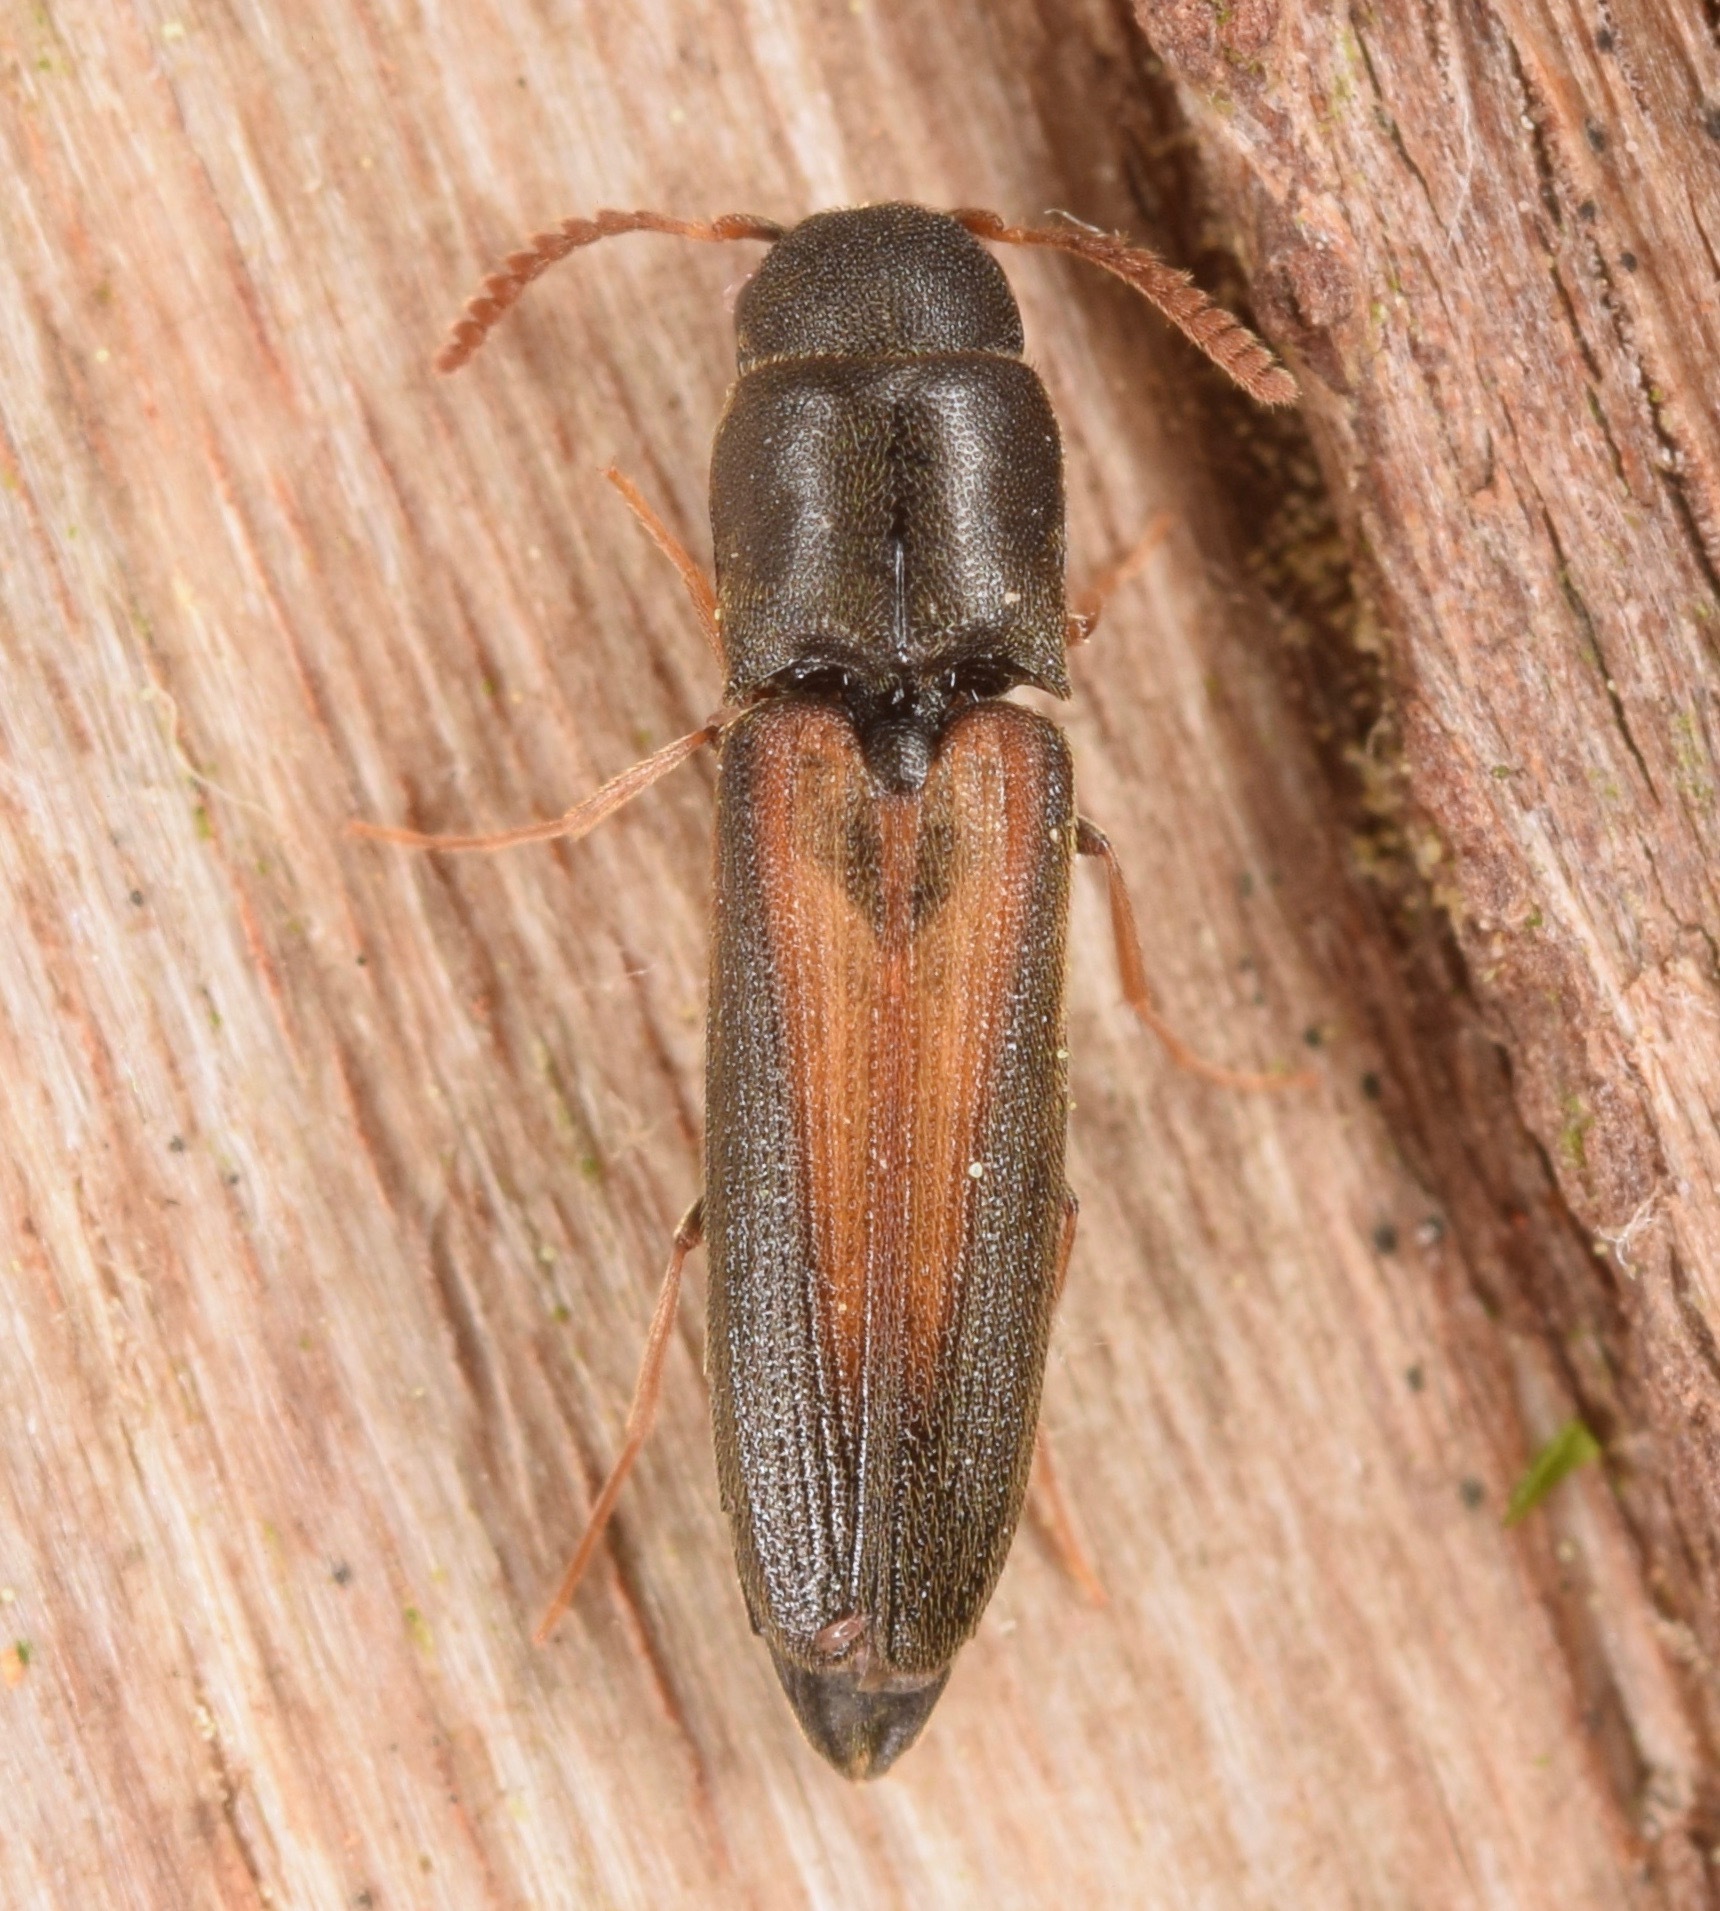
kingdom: Animalia
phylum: Arthropoda
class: Insecta
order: Coleoptera
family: Eucnemidae
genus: Isorhipis
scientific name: Isorhipis obliqua
